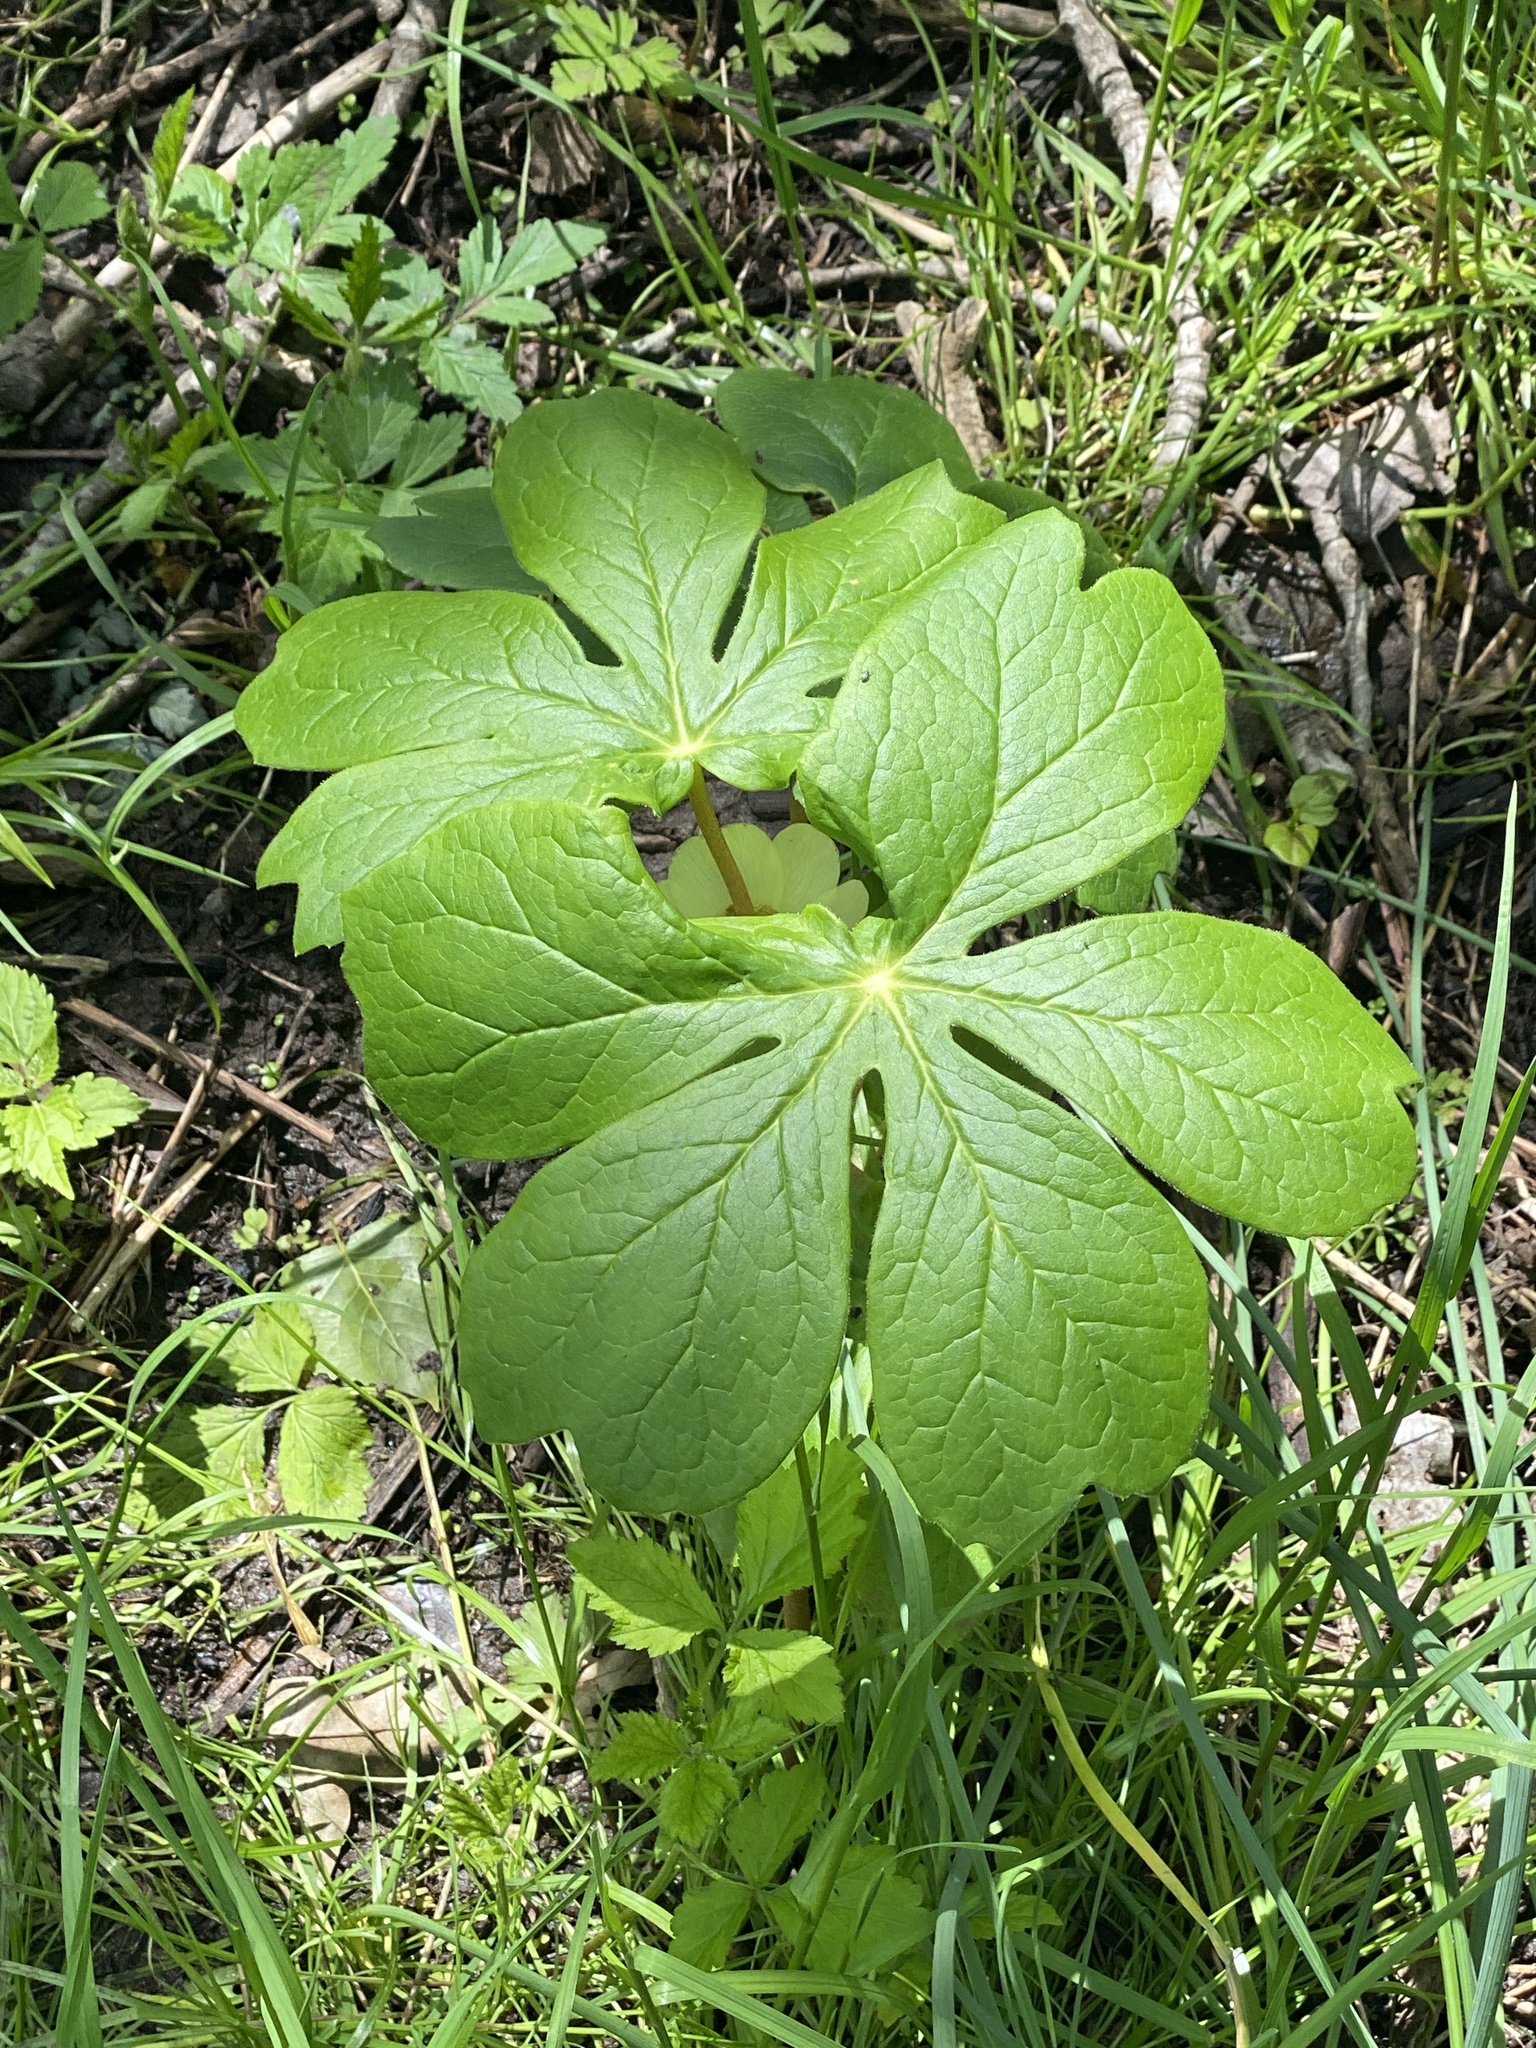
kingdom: Plantae
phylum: Tracheophyta
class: Magnoliopsida
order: Ranunculales
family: Berberidaceae
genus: Podophyllum
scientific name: Podophyllum peltatum
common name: Wild mandrake
